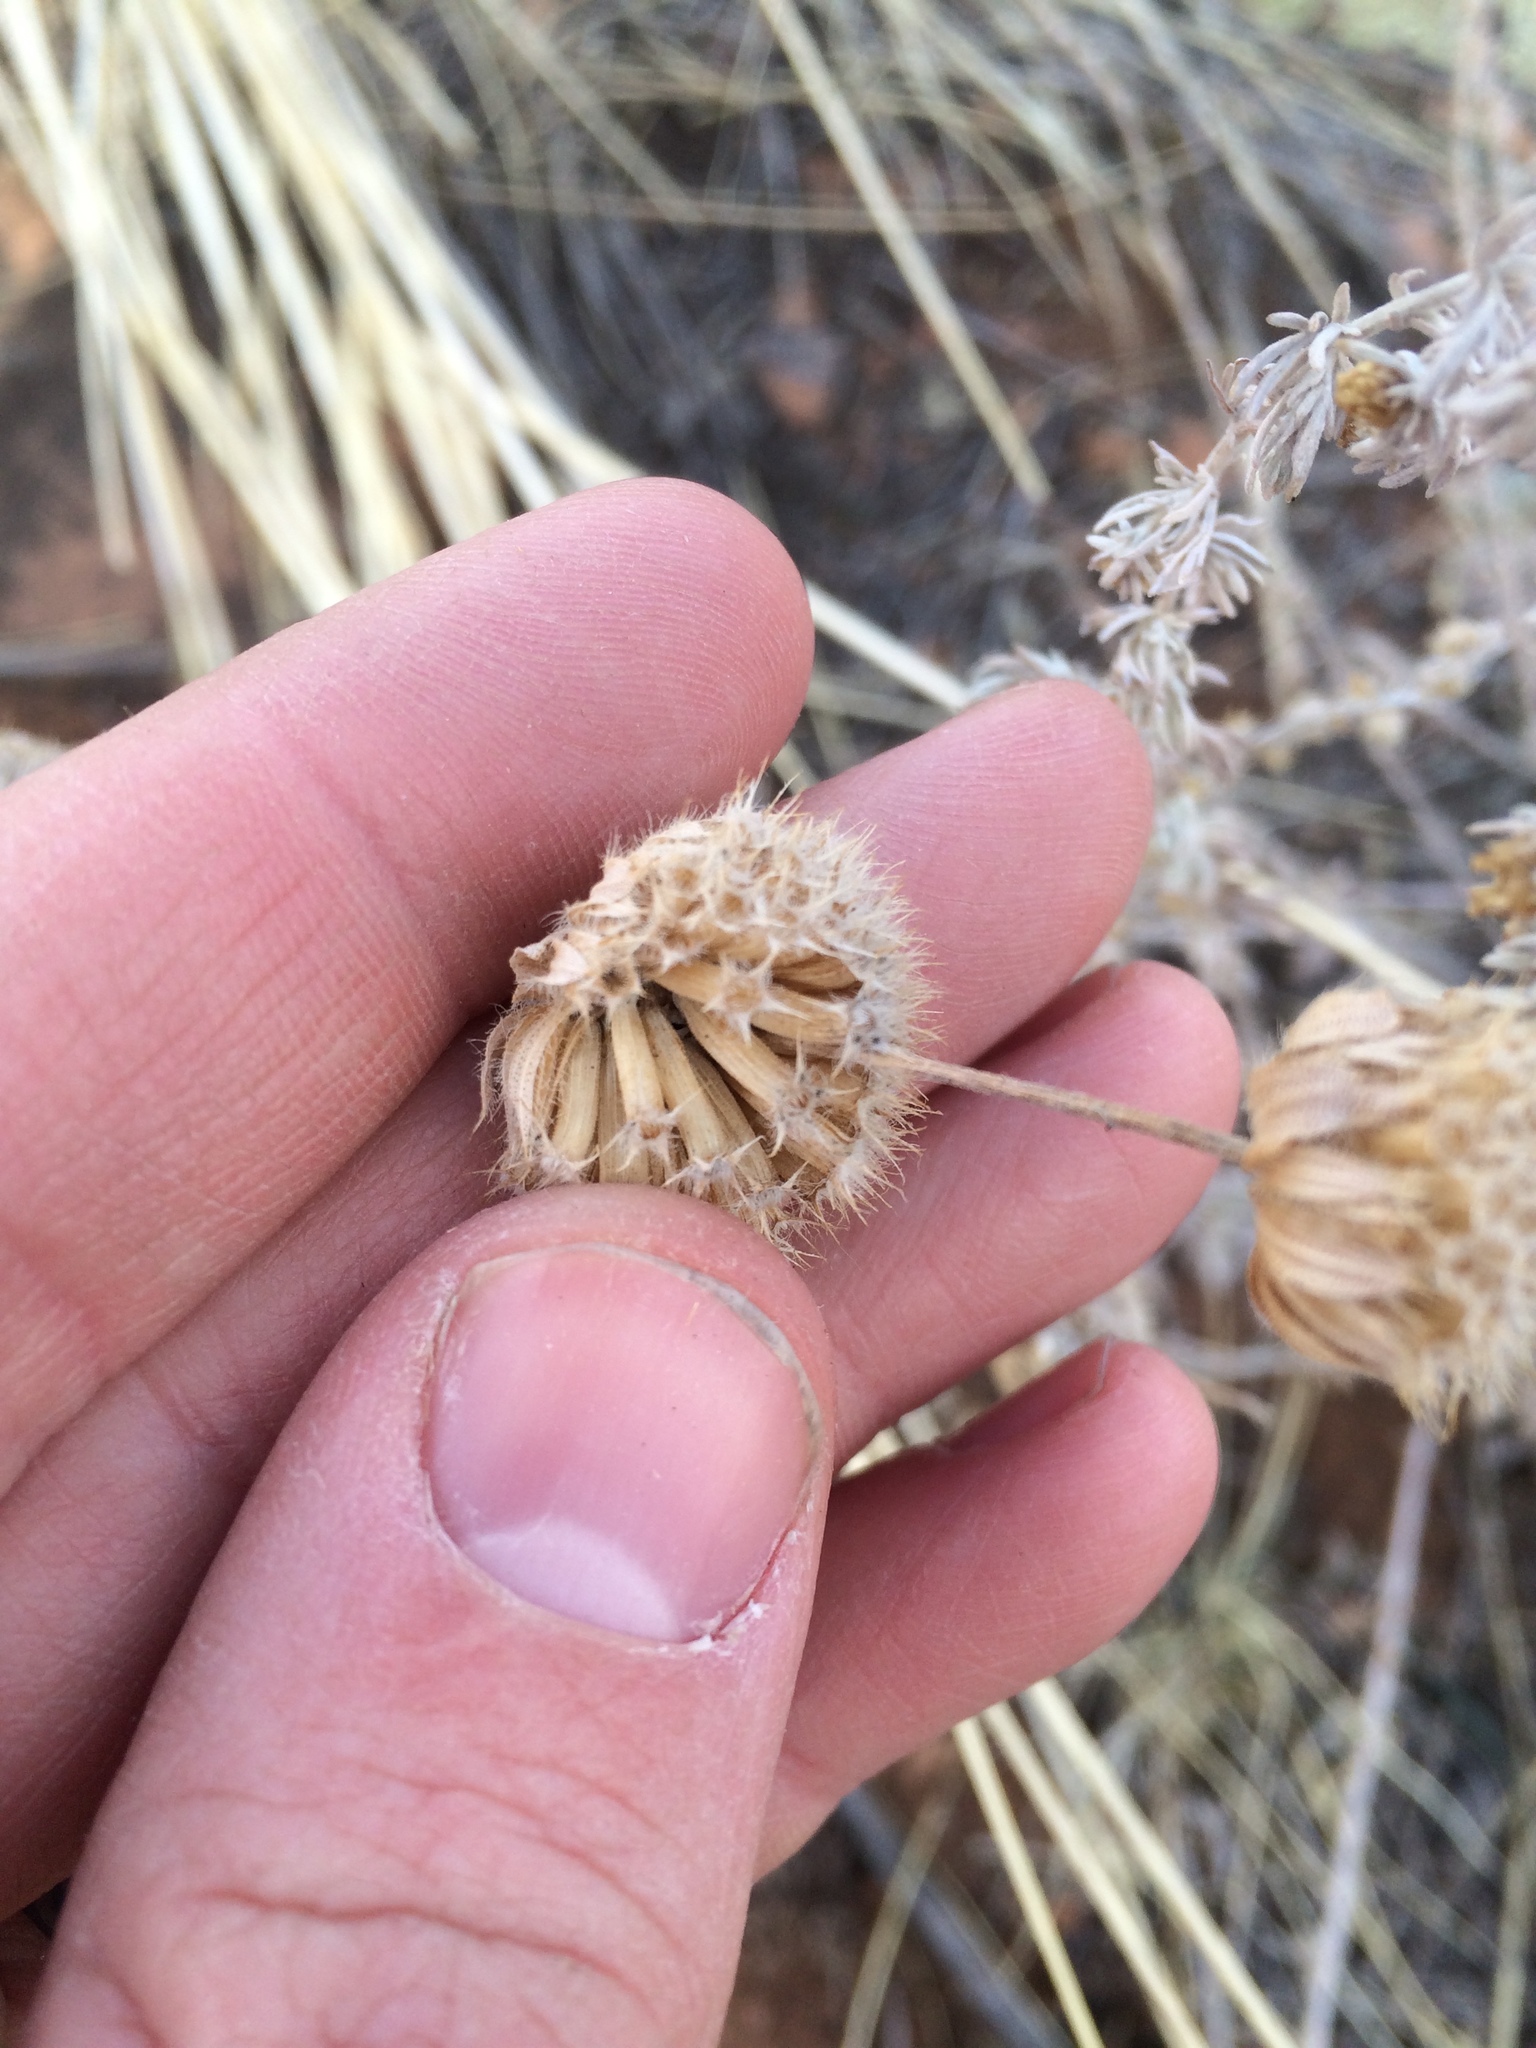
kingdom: Plantae
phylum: Tracheophyta
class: Magnoliopsida
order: Lamiales
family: Lamiaceae
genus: Monarda
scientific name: Monarda pectinata
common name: Plains beebalm
